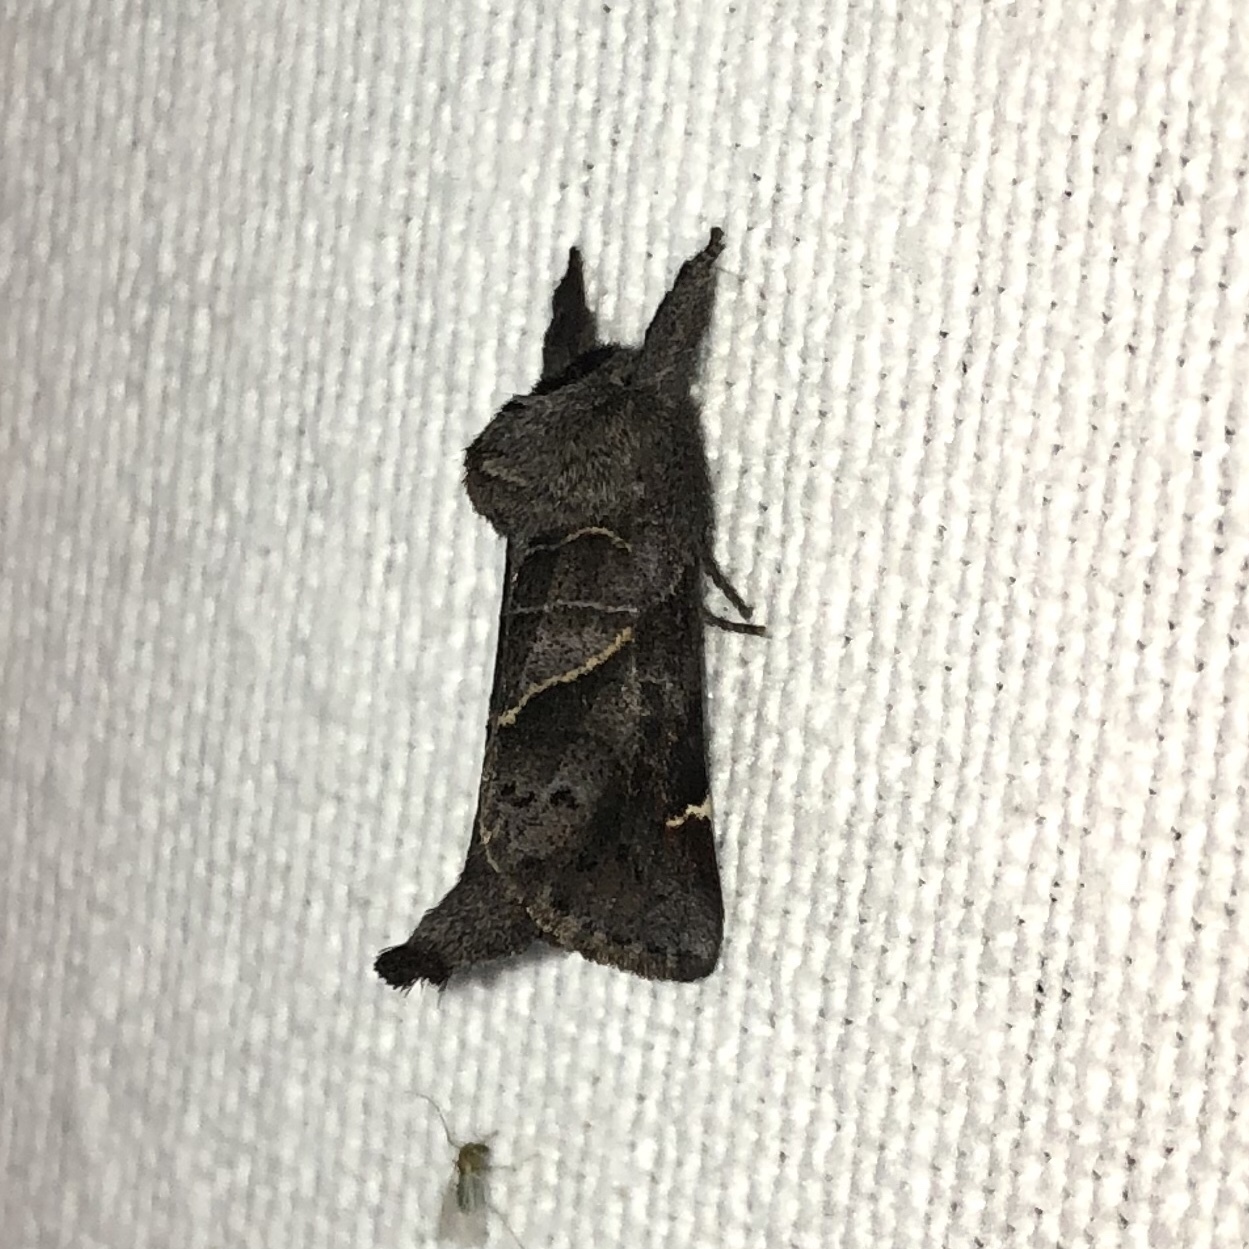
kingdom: Animalia
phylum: Arthropoda
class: Insecta
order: Lepidoptera
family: Notodontidae
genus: Clostera
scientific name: Clostera apicalis
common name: Apical prominent
